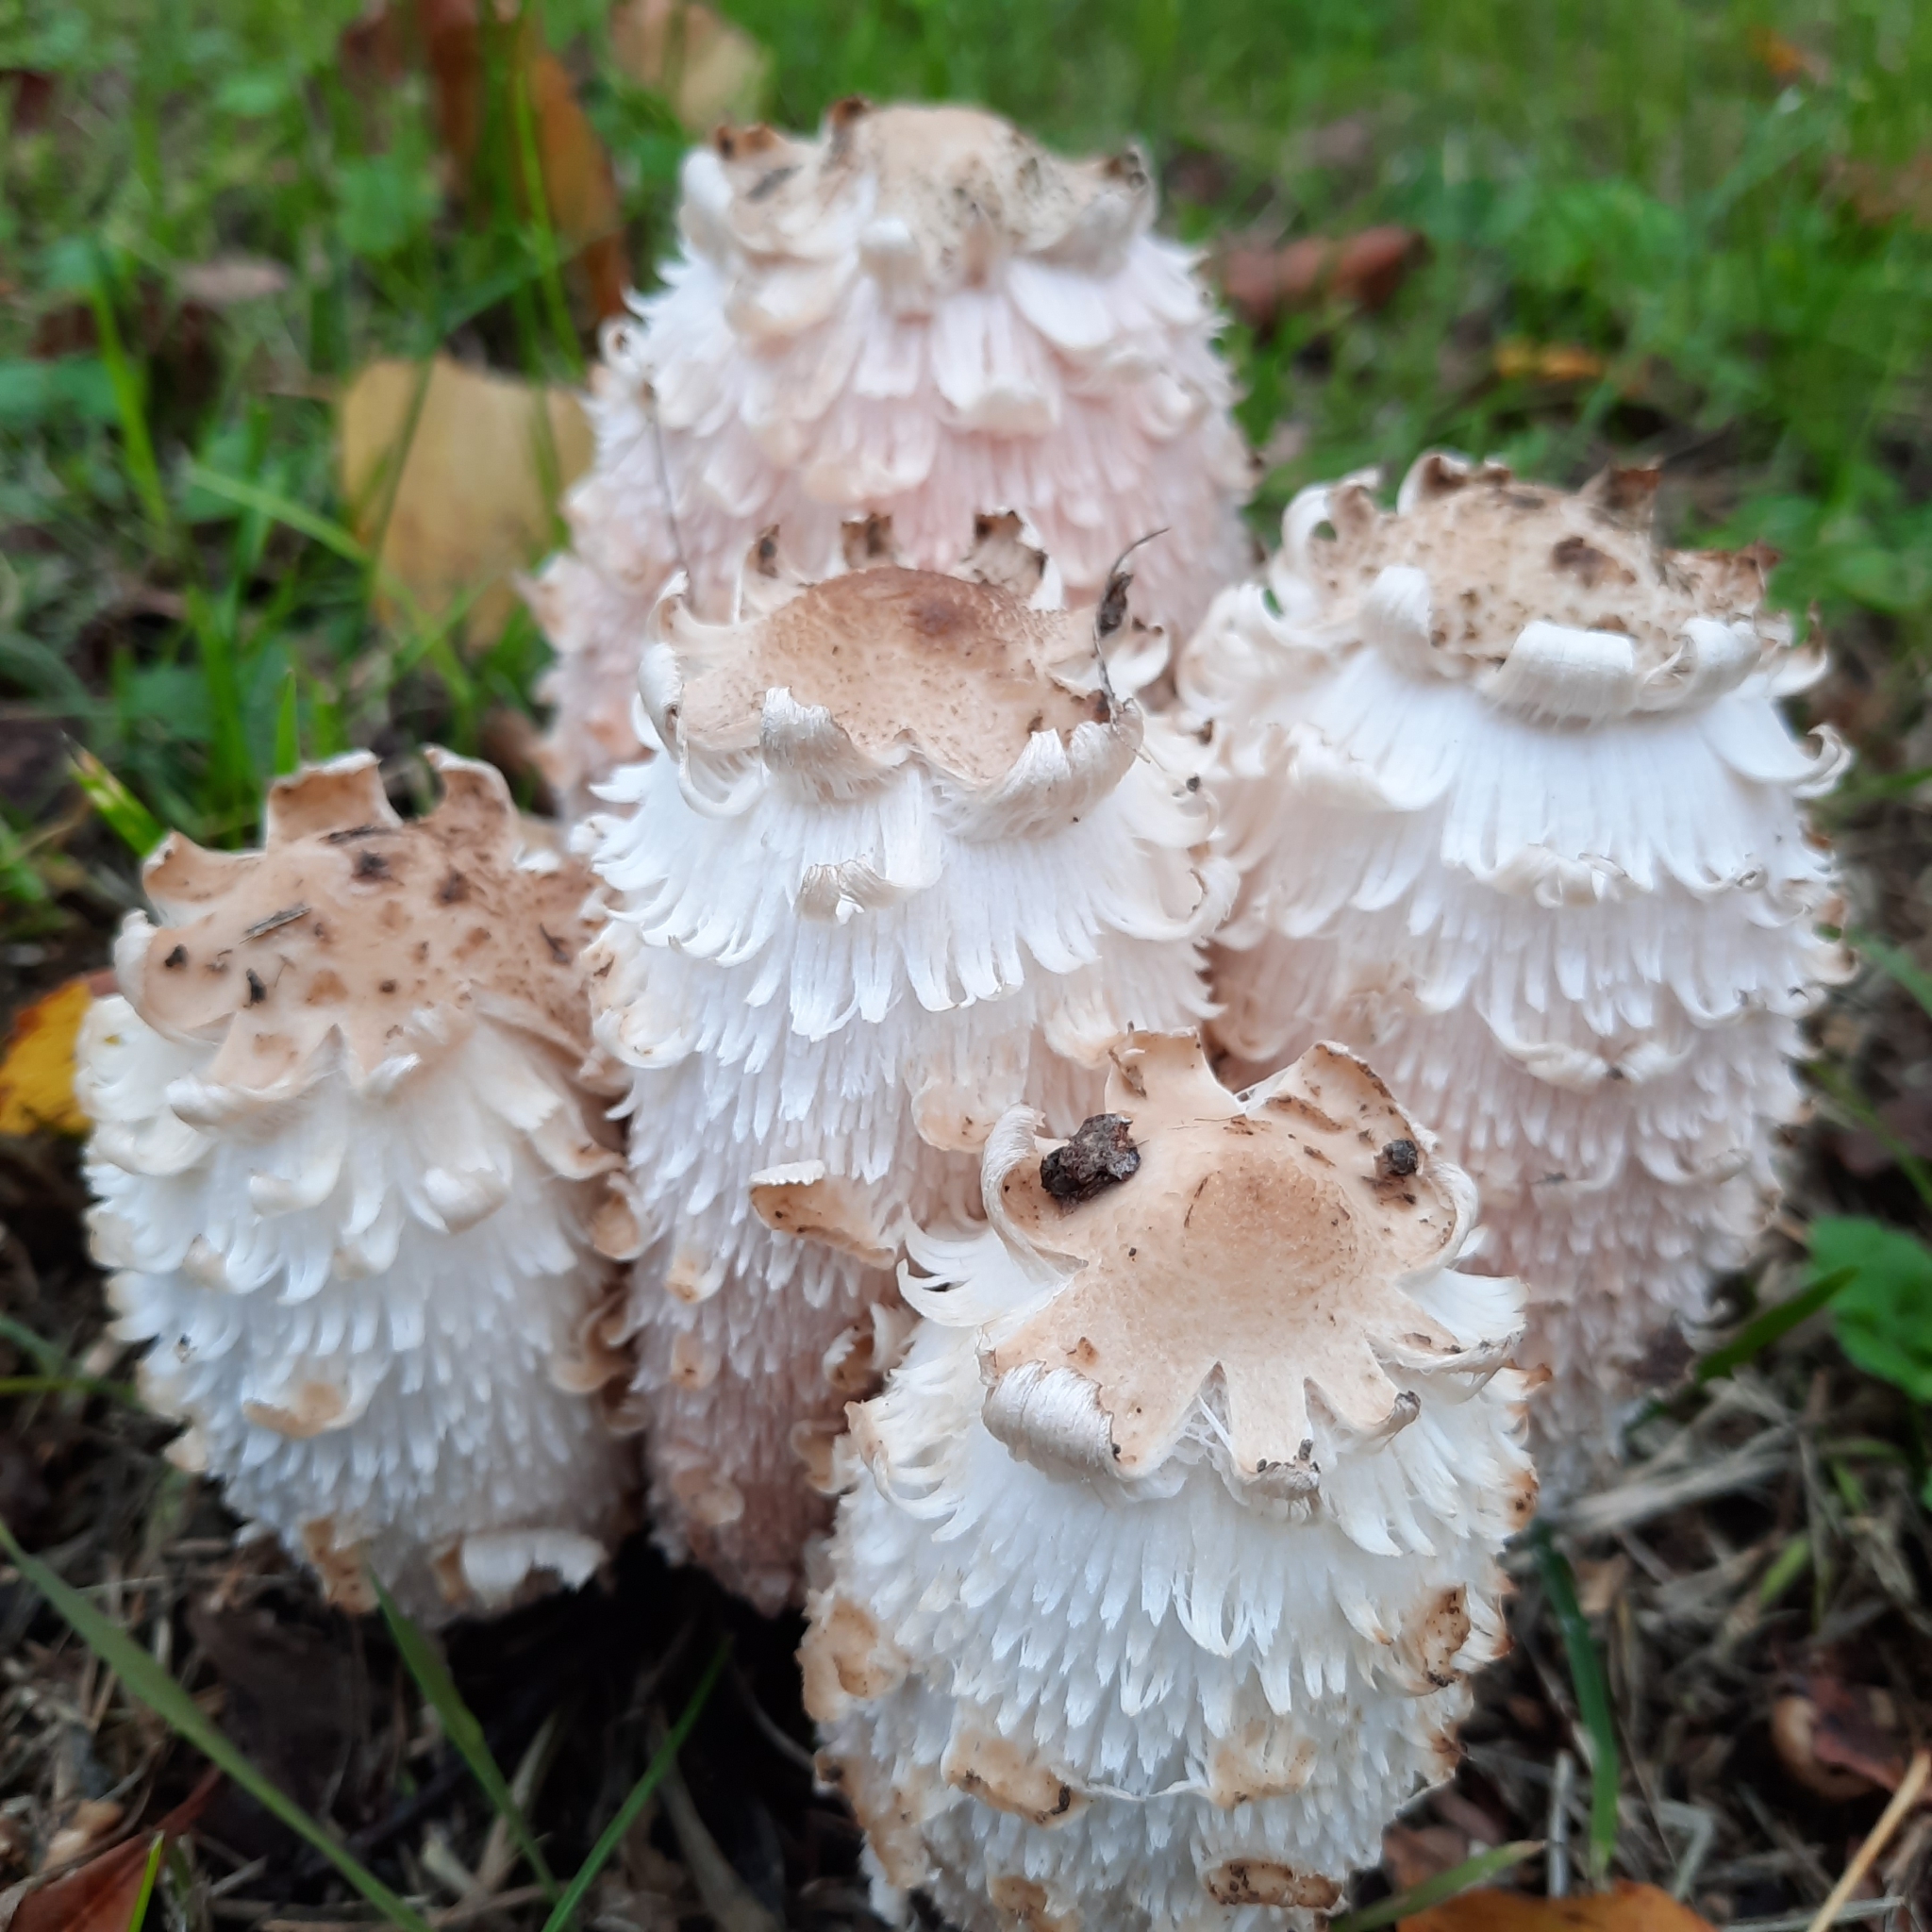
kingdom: Fungi
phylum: Basidiomycota
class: Agaricomycetes
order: Agaricales
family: Agaricaceae
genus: Coprinus
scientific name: Coprinus comatus
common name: Lawyer's wig
